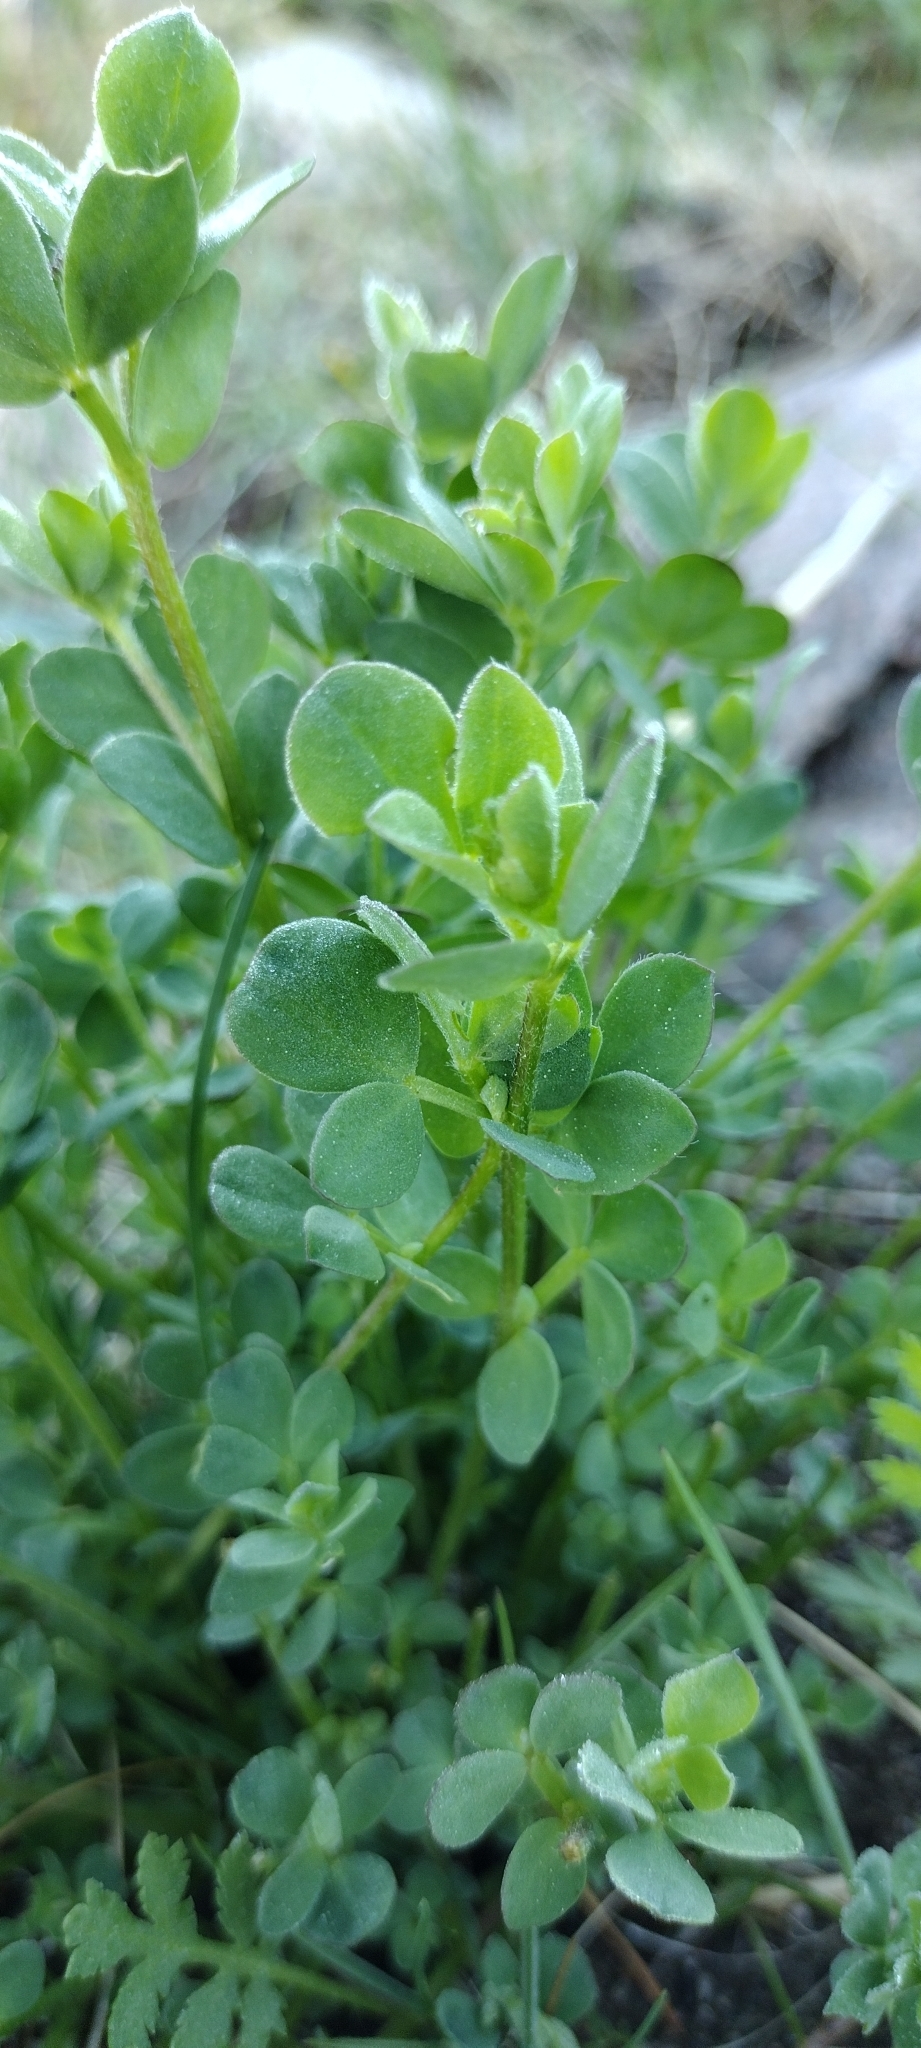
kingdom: Plantae
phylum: Tracheophyta
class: Magnoliopsida
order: Fabales
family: Fabaceae
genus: Lotus
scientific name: Lotus corniculatus
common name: Common bird's-foot-trefoil
